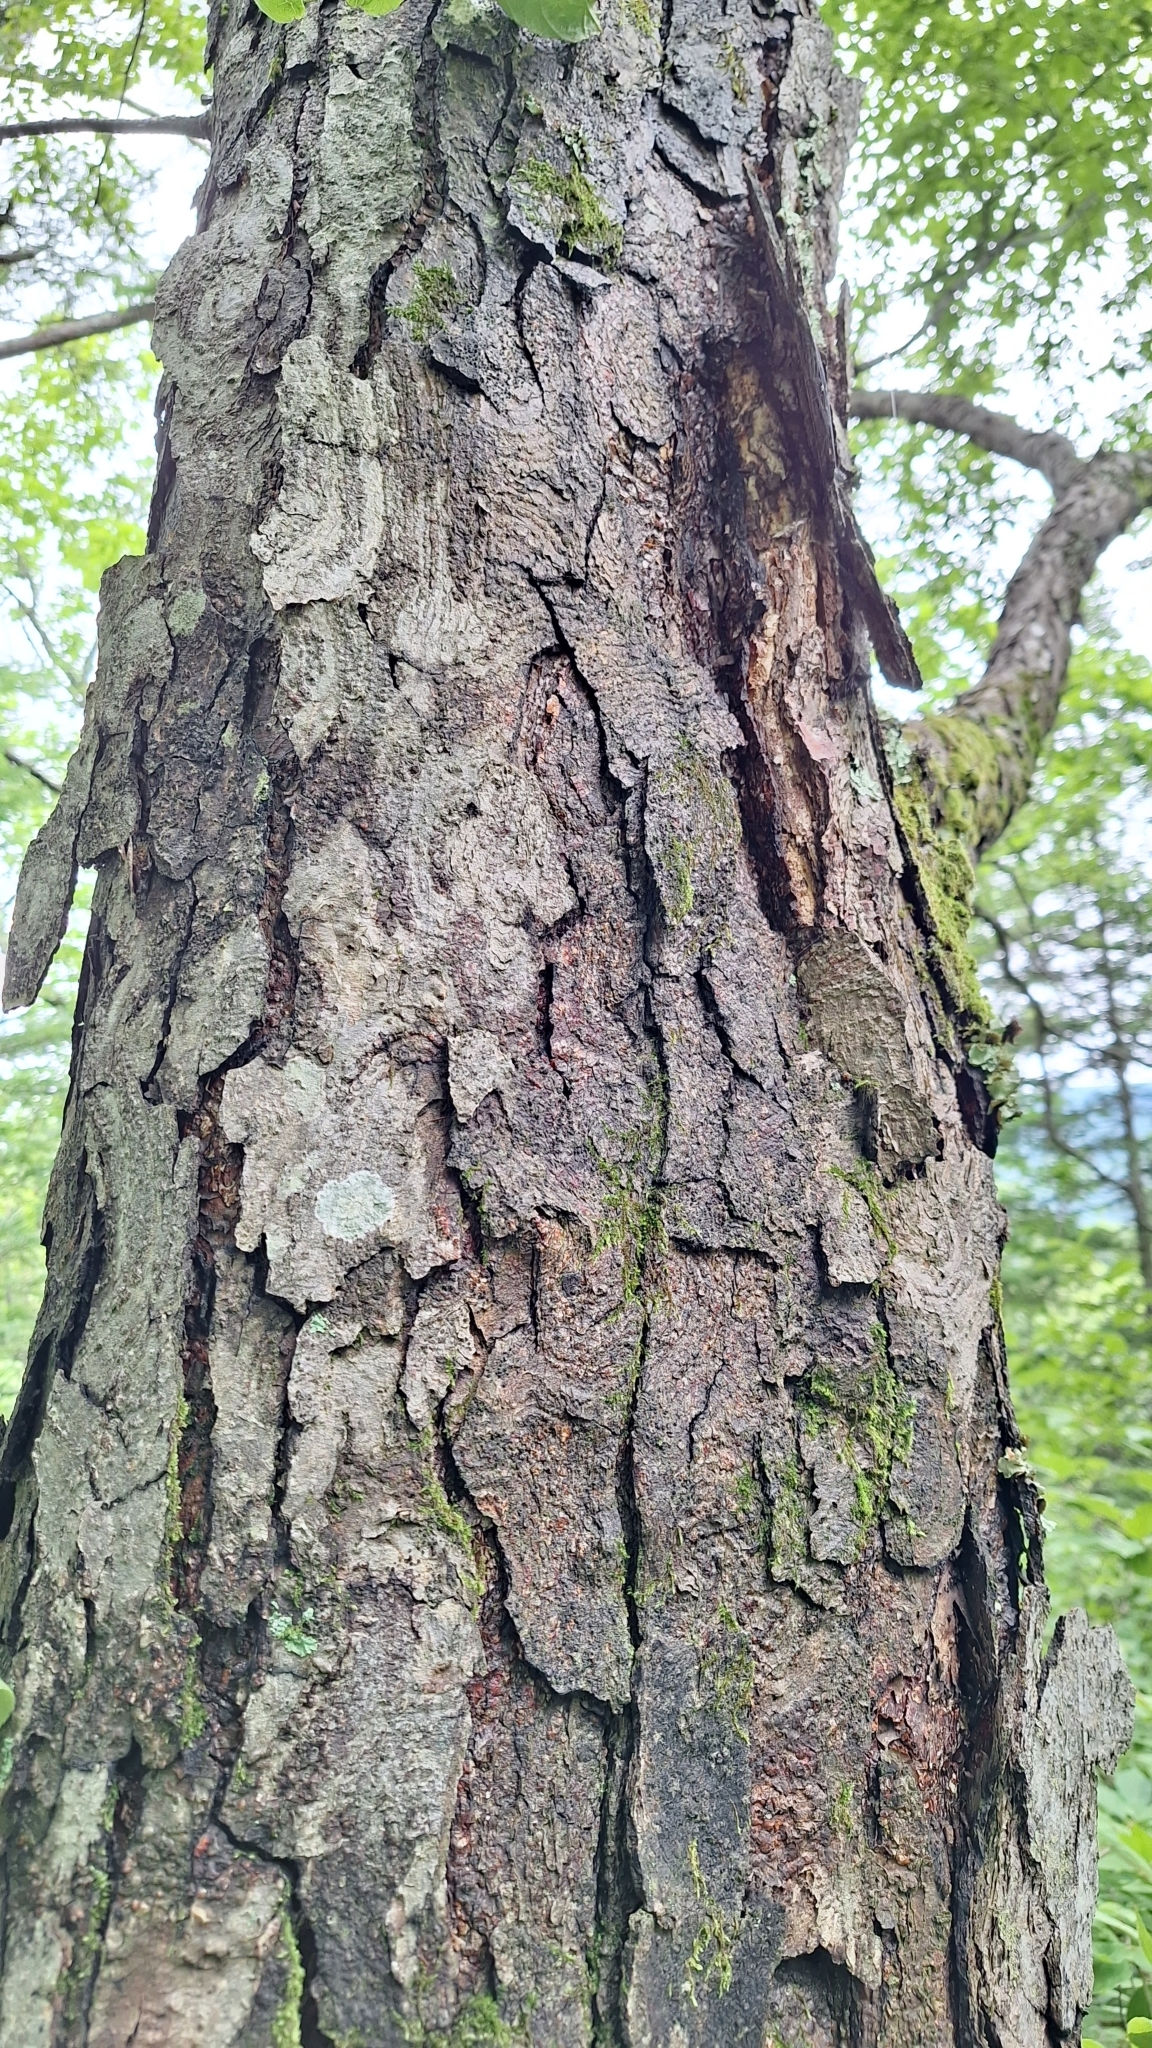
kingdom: Plantae
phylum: Tracheophyta
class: Magnoliopsida
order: Fagales
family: Betulaceae
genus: Betula
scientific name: Betula schmidtii
